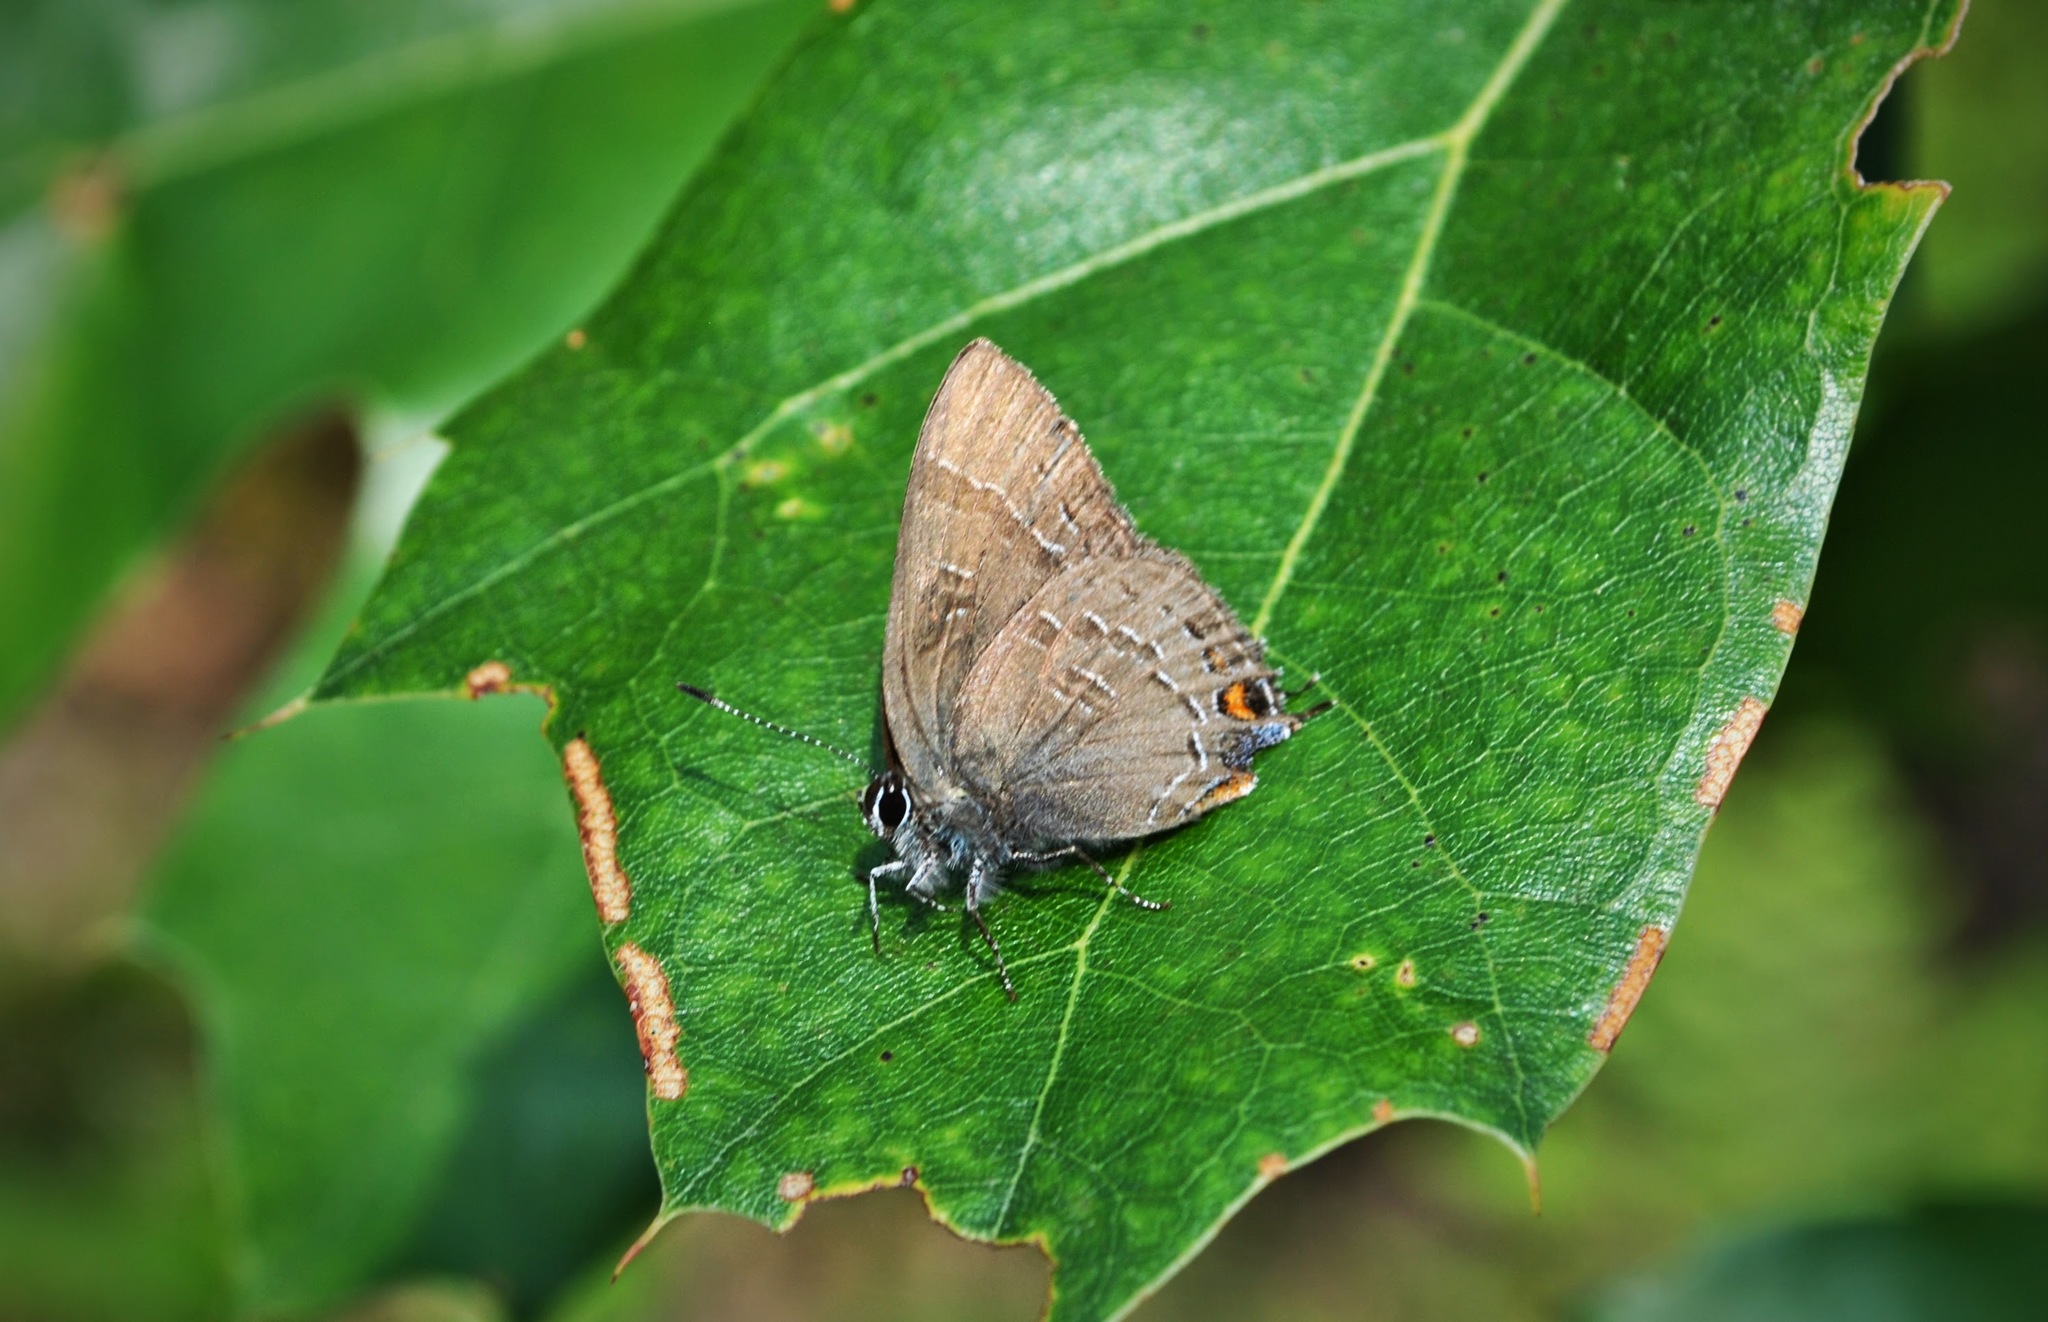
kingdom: Animalia
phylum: Arthropoda
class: Insecta
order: Lepidoptera
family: Lycaenidae
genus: Satyrium
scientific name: Satyrium calanus
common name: Banded hairstreak
